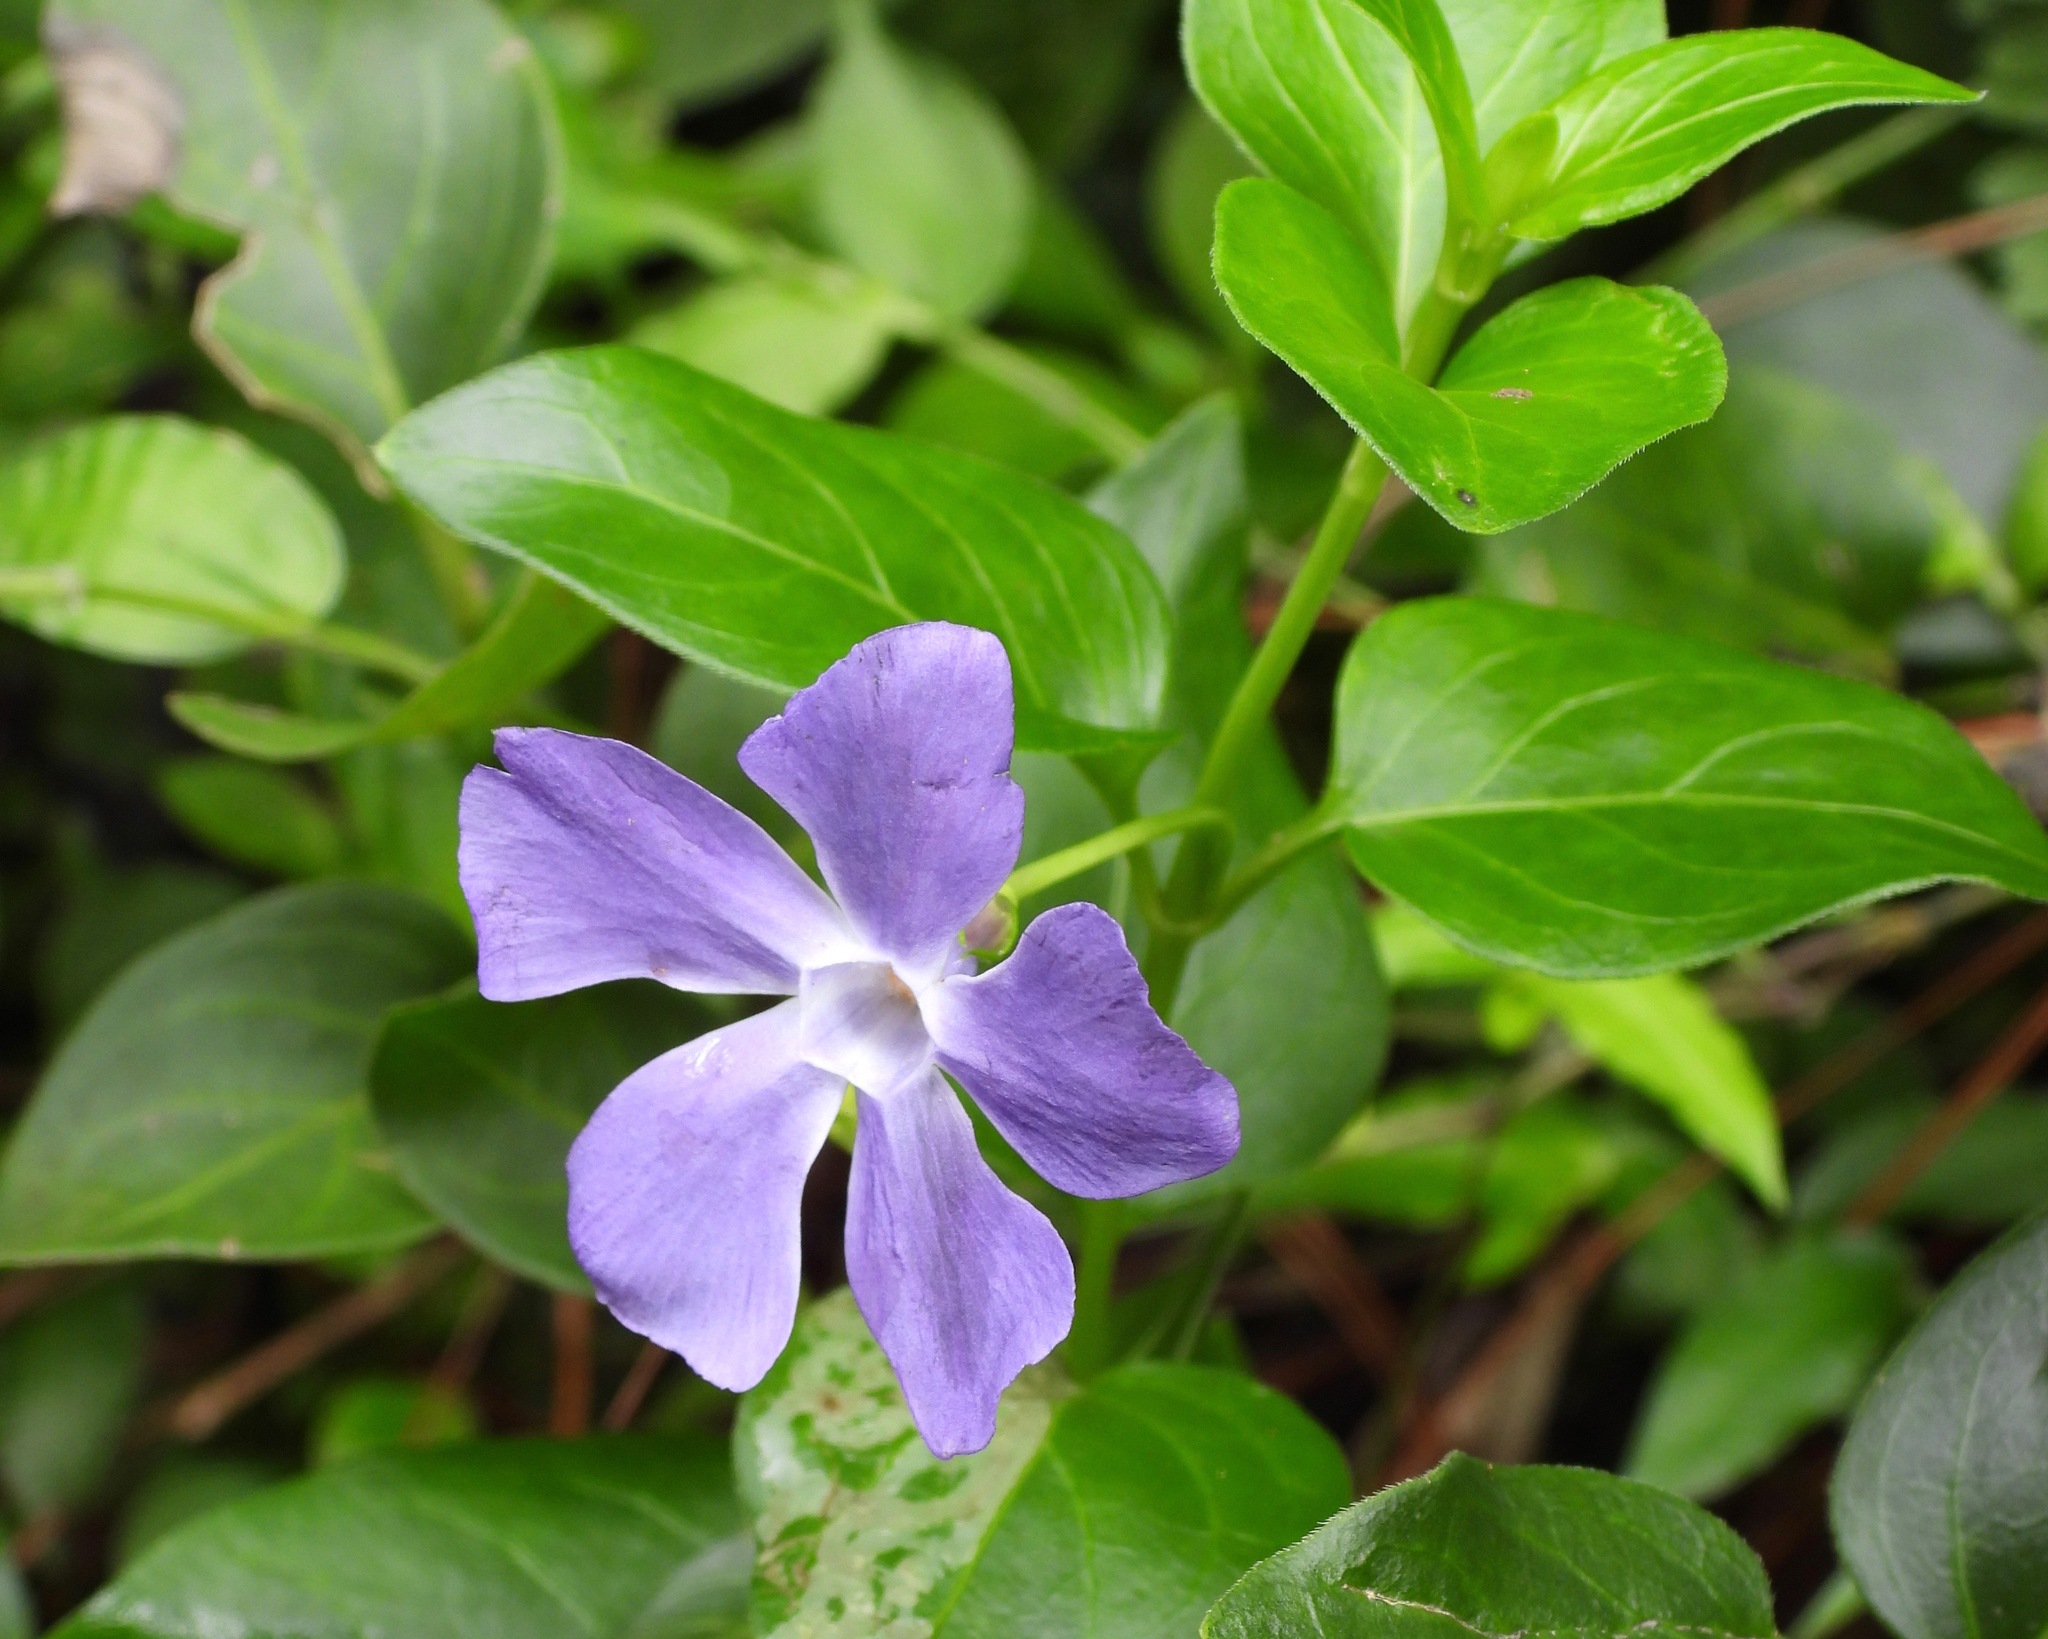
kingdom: Plantae
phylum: Tracheophyta
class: Magnoliopsida
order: Gentianales
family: Apocynaceae
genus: Vinca
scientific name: Vinca major
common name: Greater periwinkle
